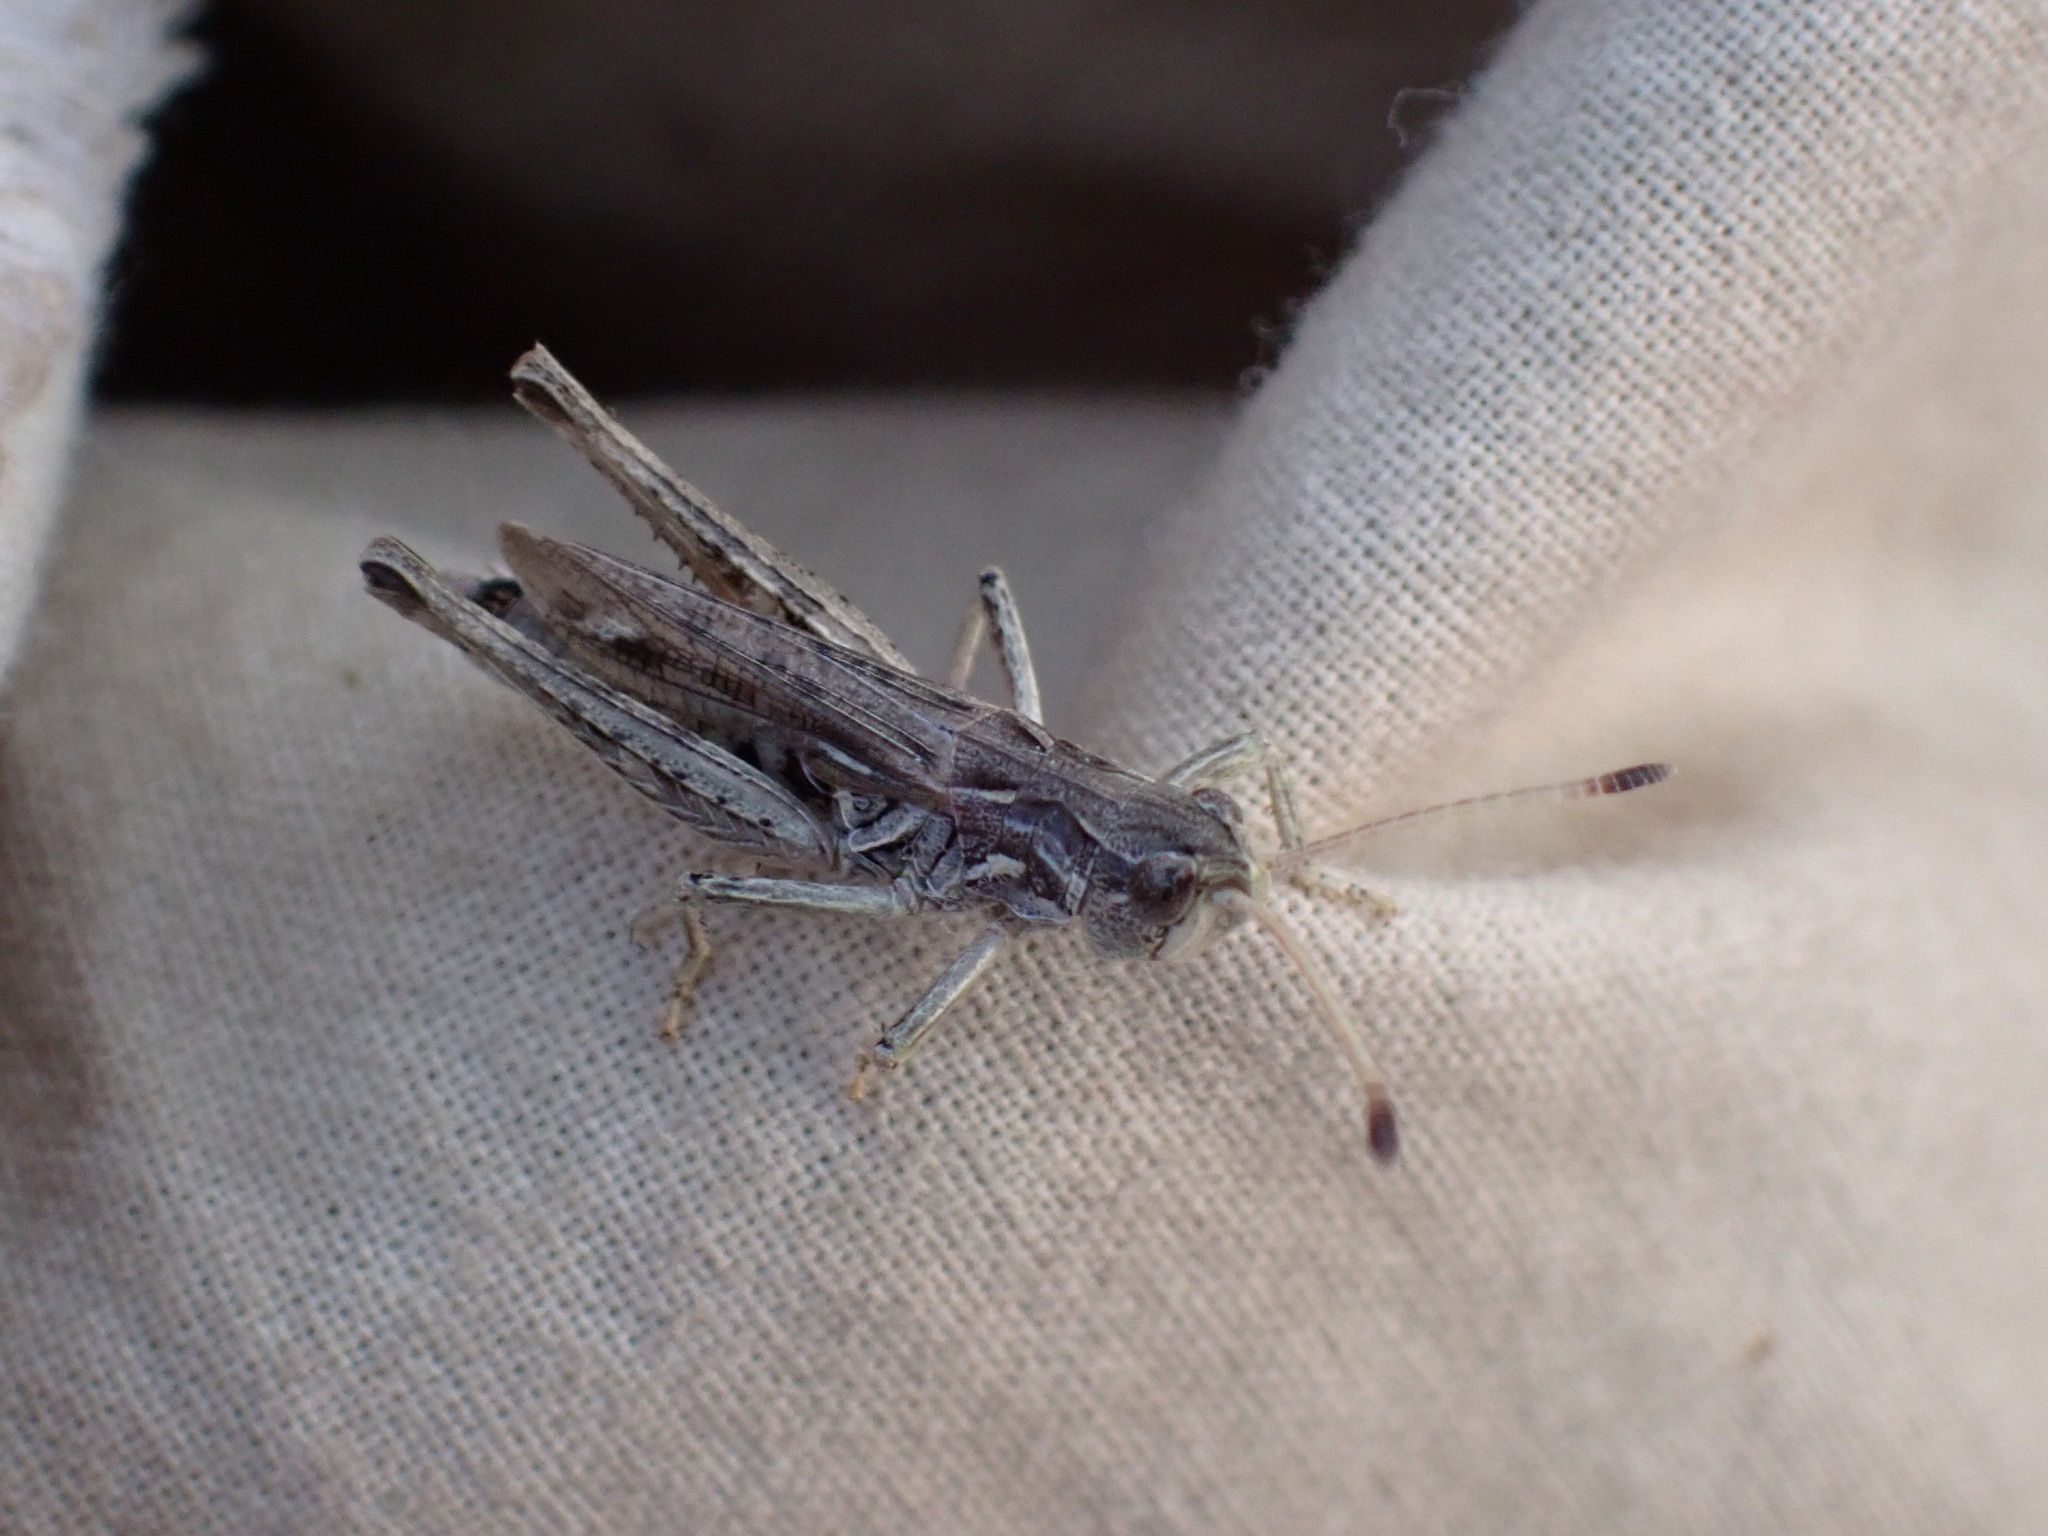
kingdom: Animalia
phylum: Arthropoda
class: Insecta
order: Orthoptera
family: Acrididae
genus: Aeropedellus
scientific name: Aeropedellus clavatus
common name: Clubhorned grasshopper
